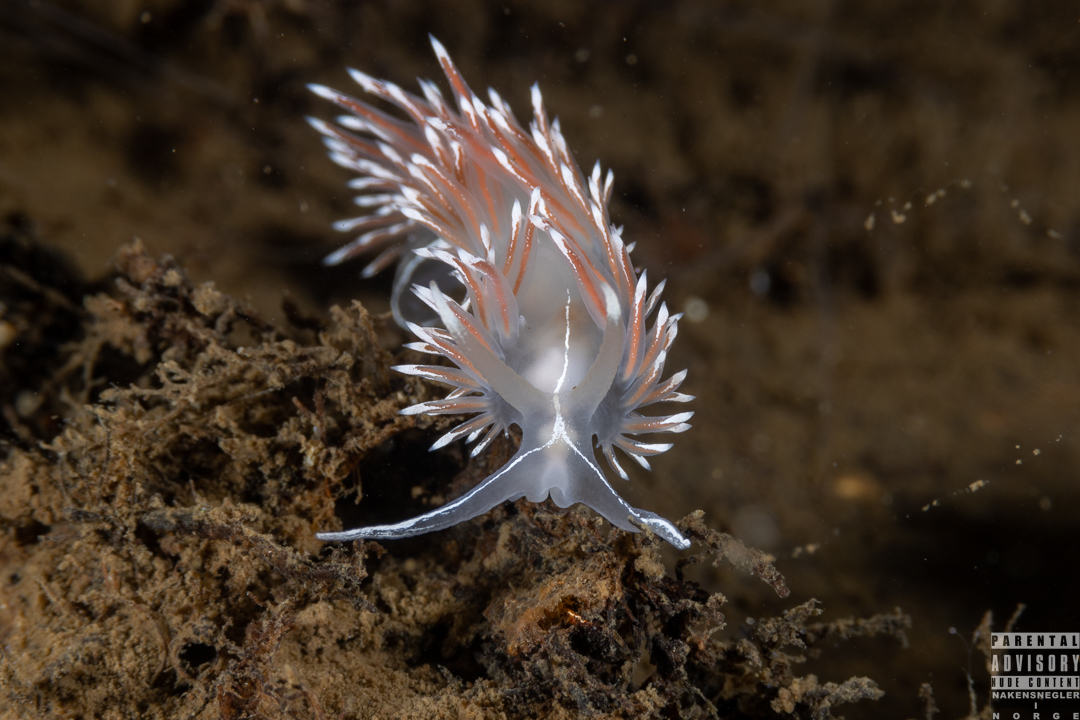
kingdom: Animalia
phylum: Mollusca
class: Gastropoda
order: Nudibranchia
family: Coryphellidae
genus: Coryphella
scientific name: Coryphella lineata
